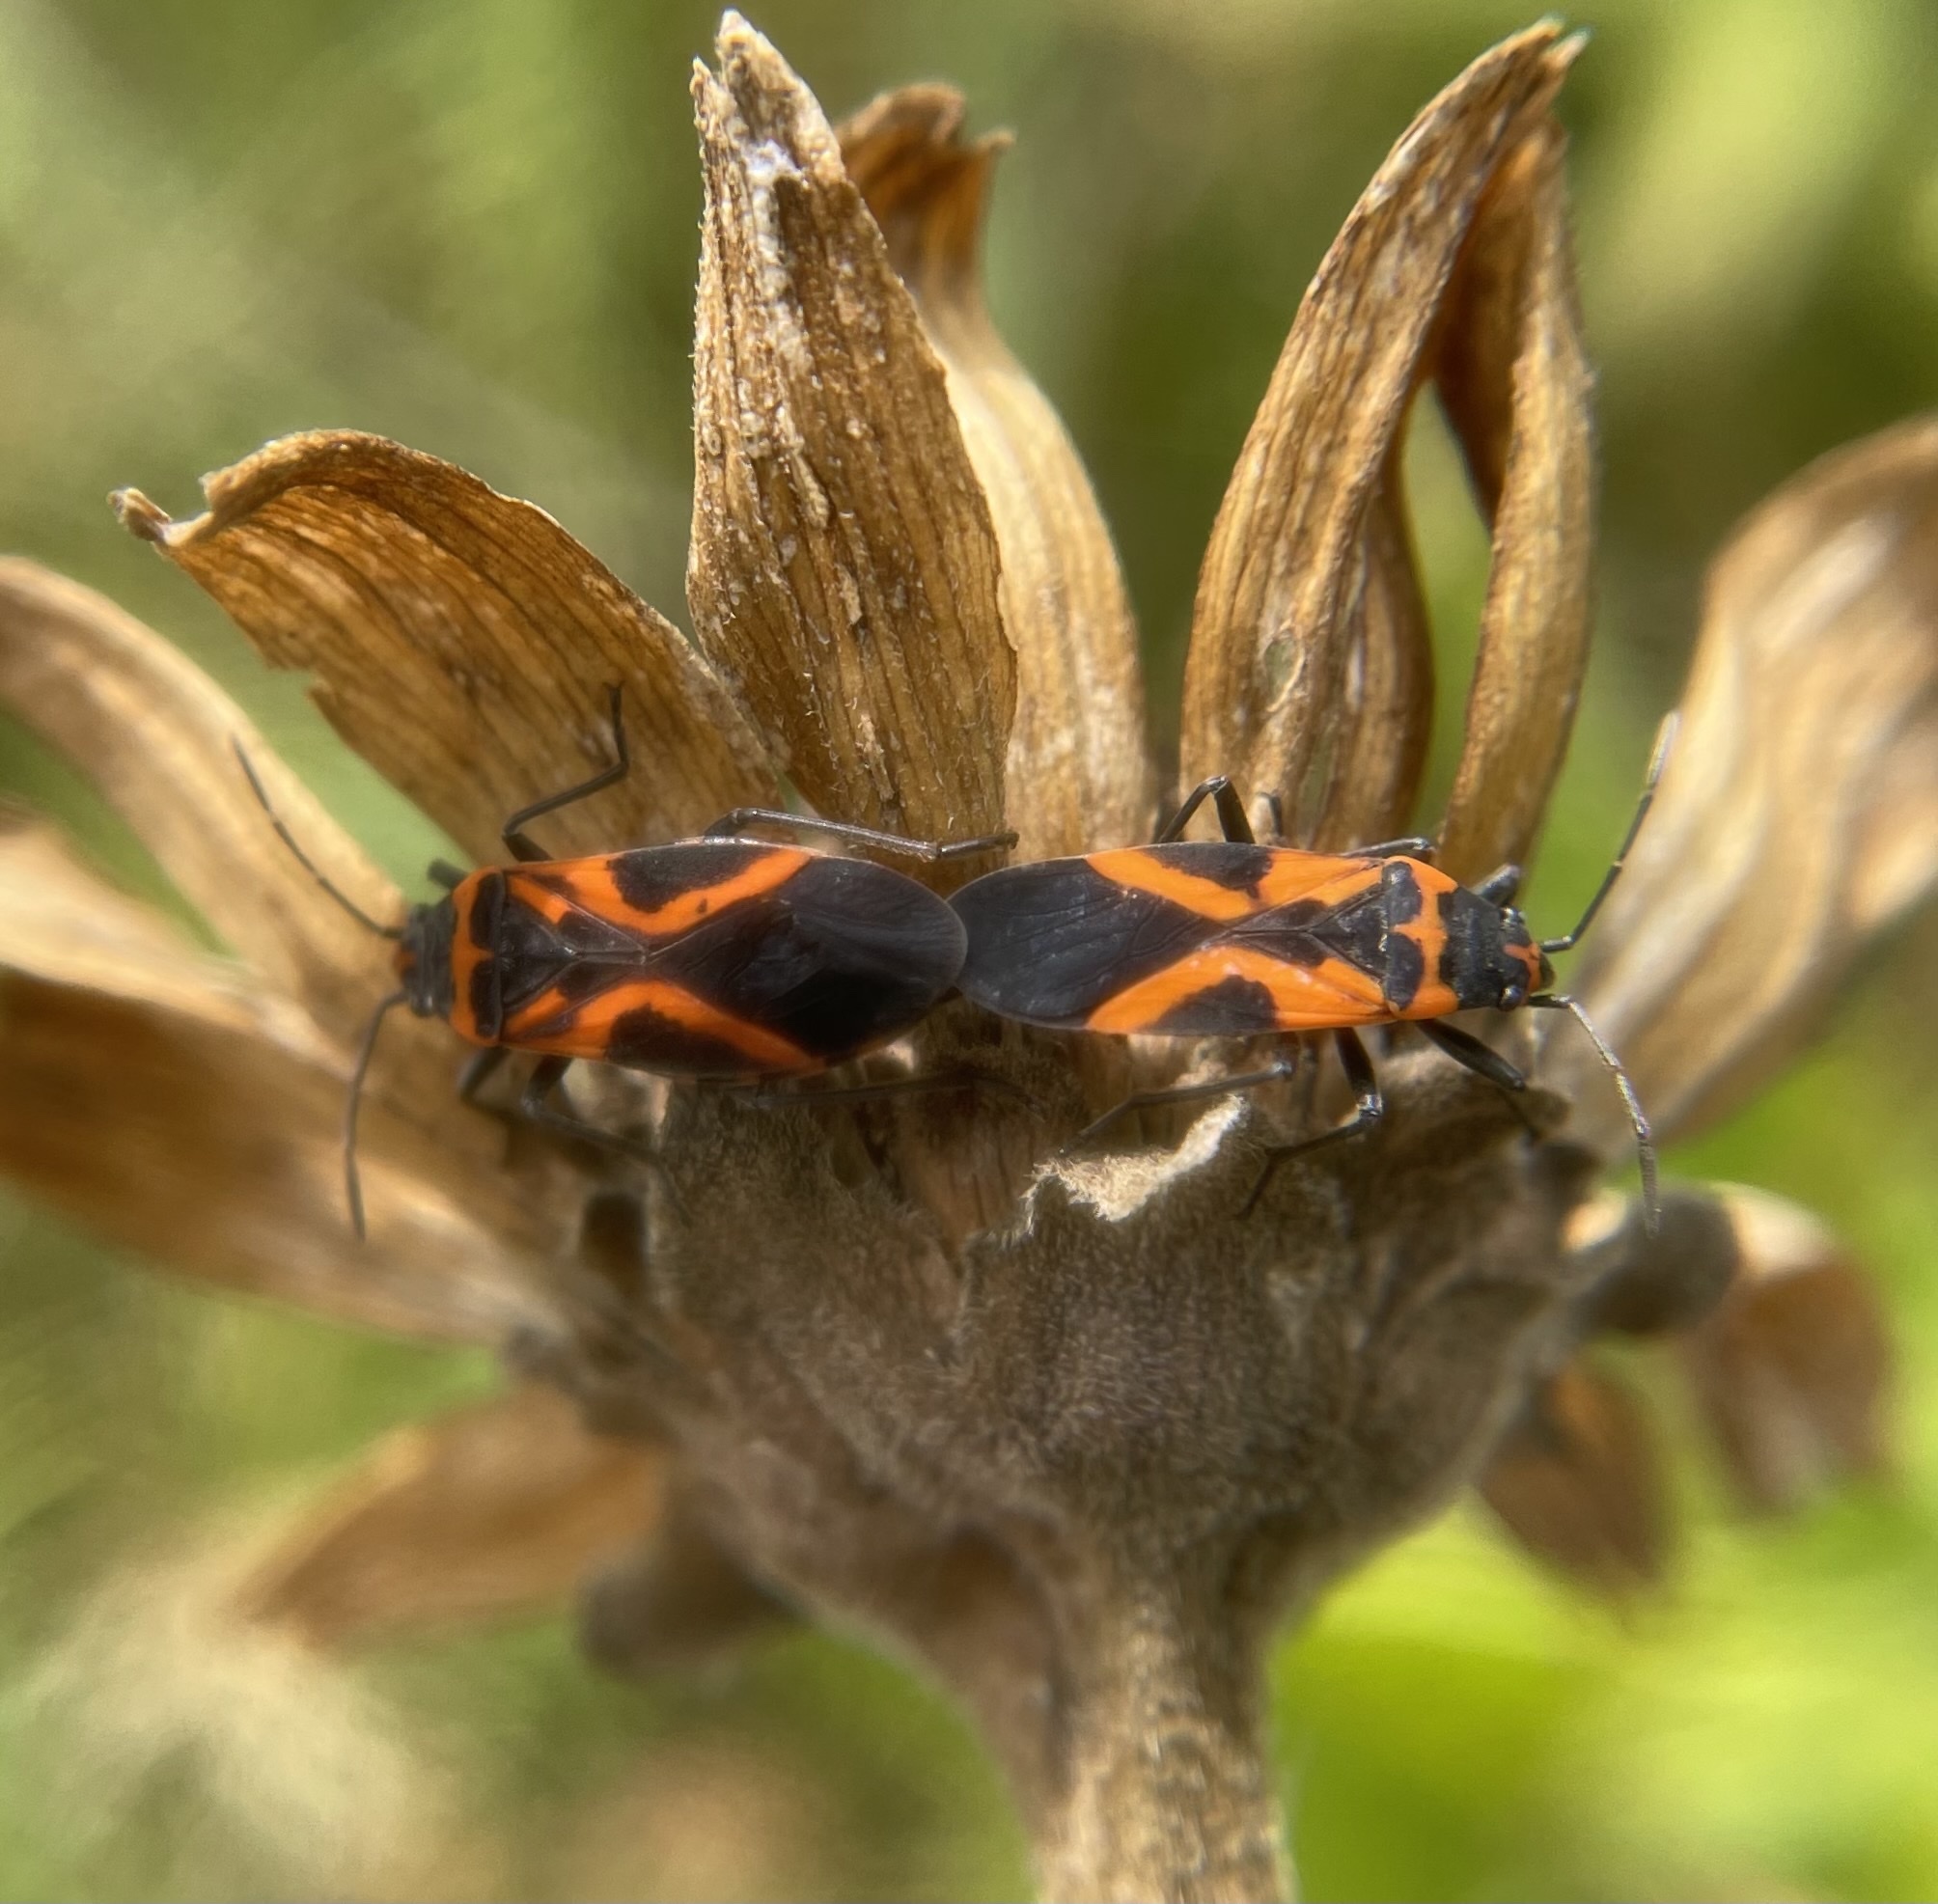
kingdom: Animalia
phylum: Arthropoda
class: Insecta
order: Hemiptera
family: Lygaeidae
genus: Lygaeus
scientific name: Lygaeus turcicus
